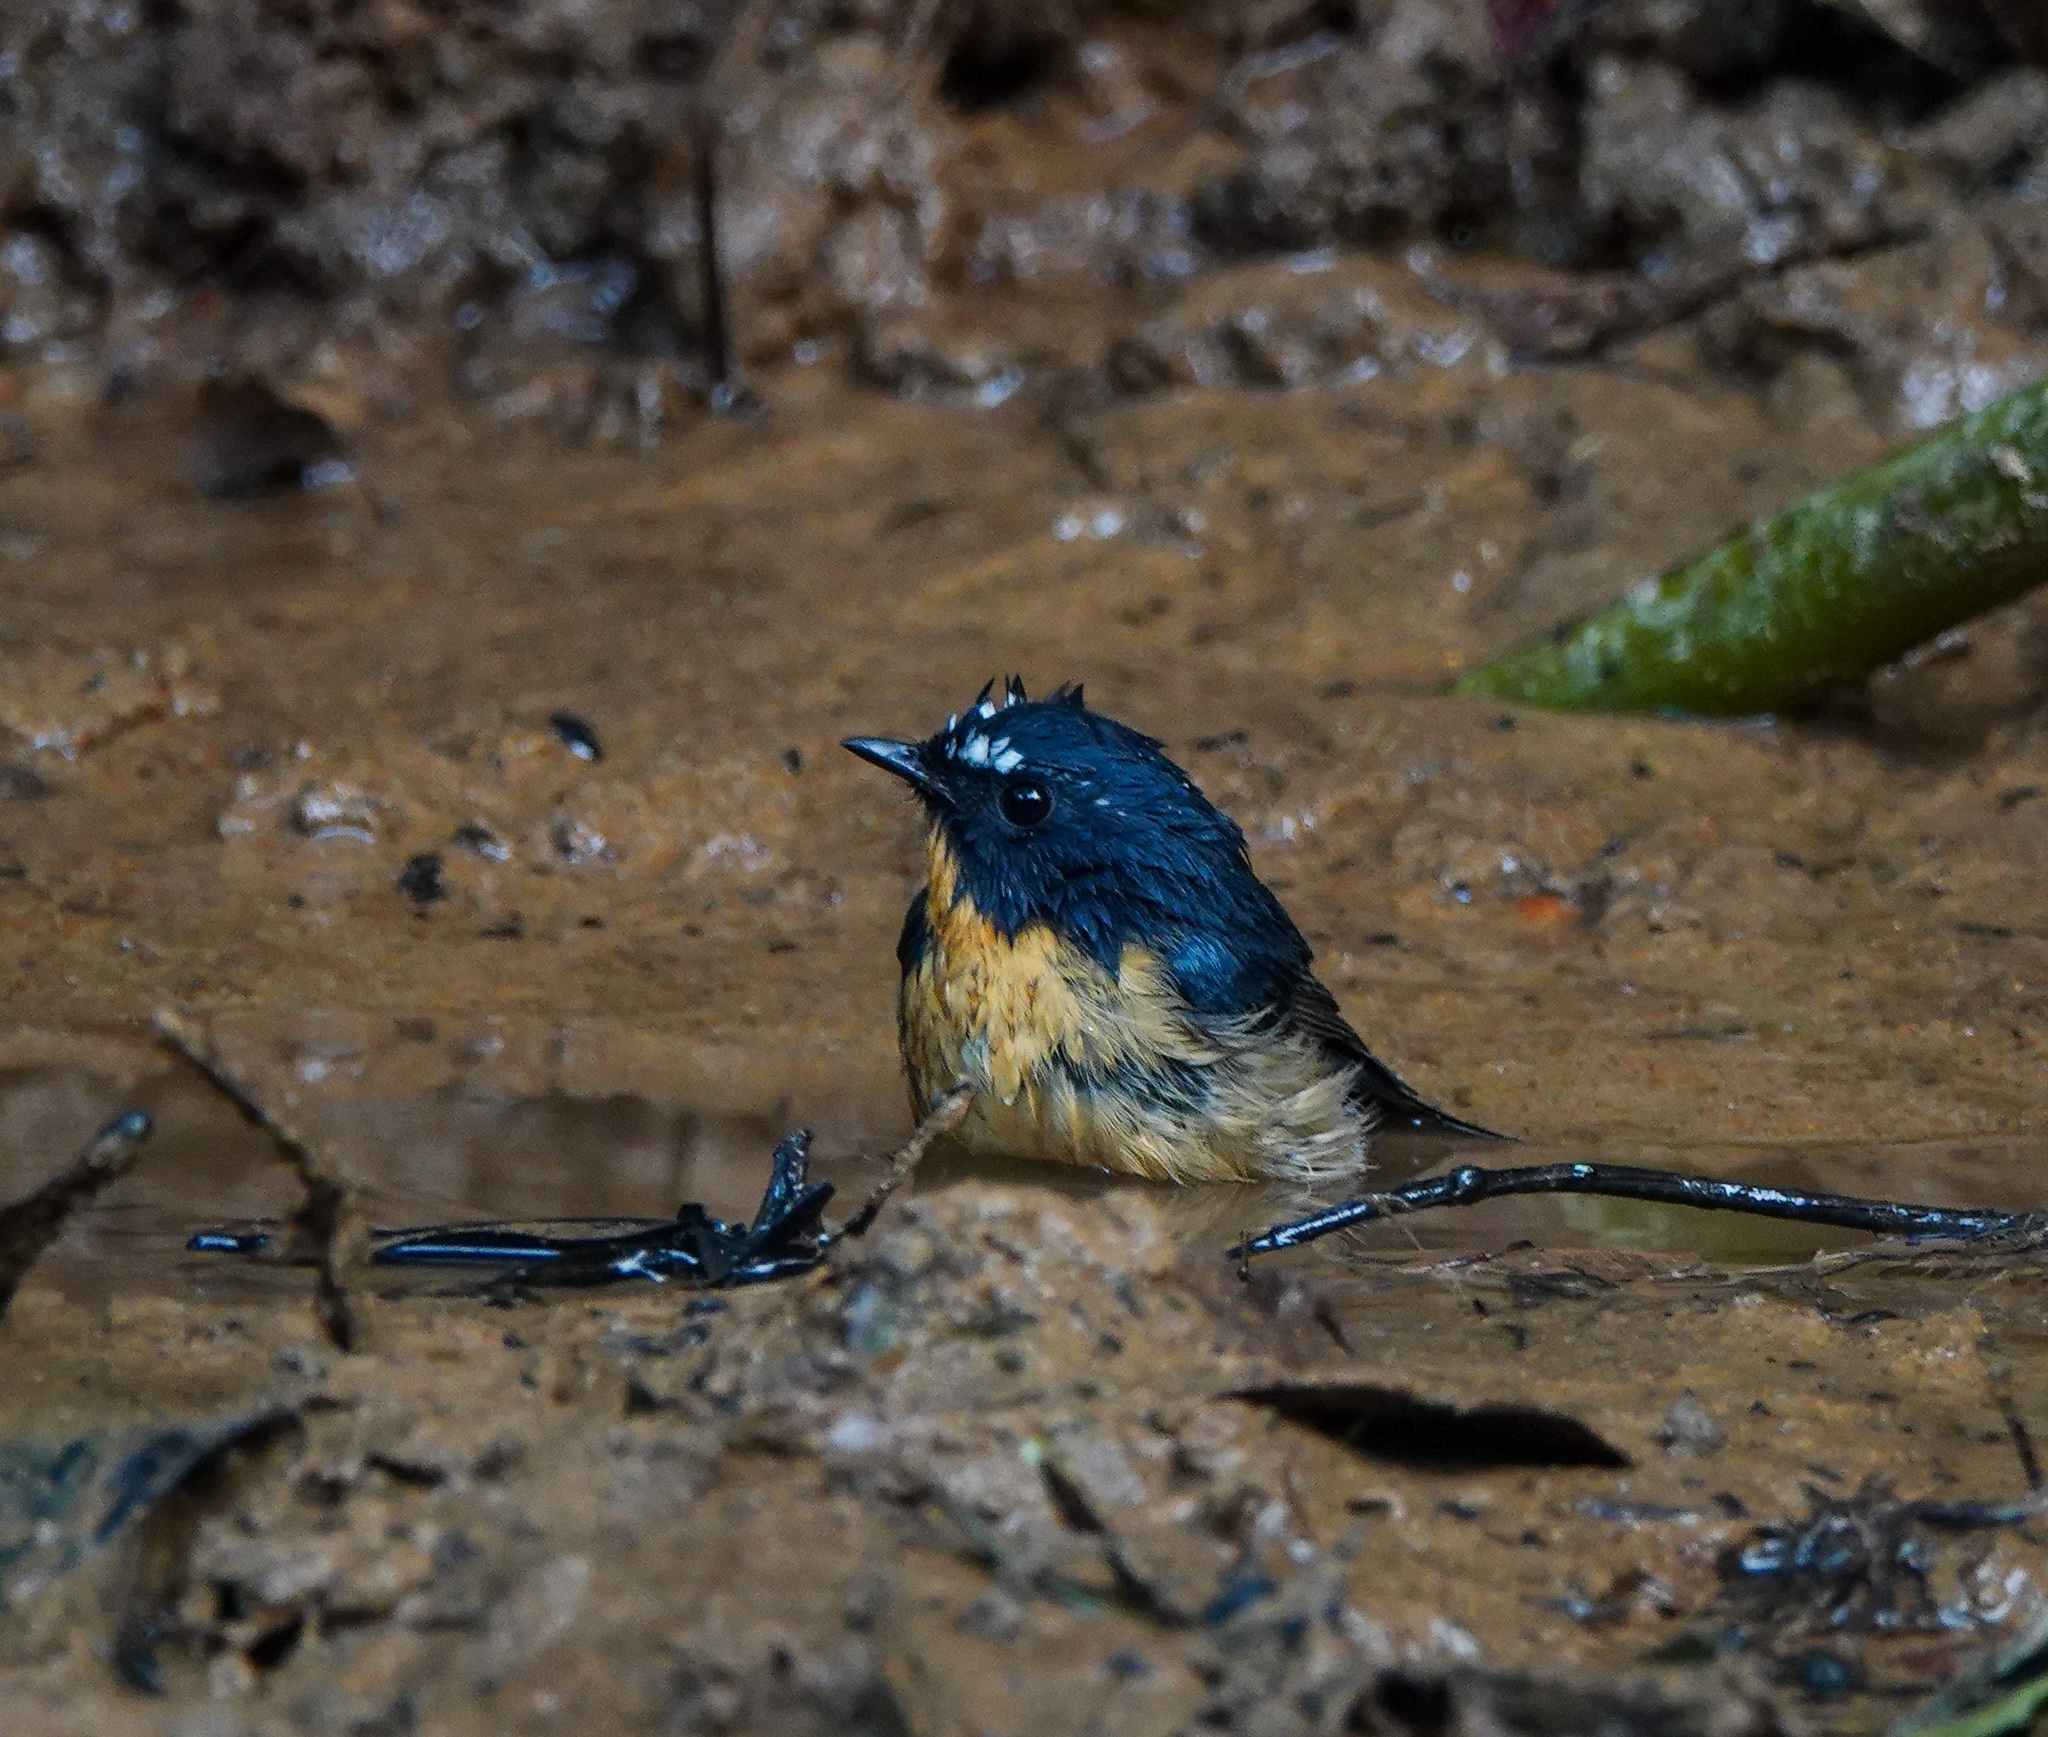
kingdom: Animalia
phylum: Chordata
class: Aves
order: Passeriformes
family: Muscicapidae
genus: Ficedula
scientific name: Ficedula hyperythra
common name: Snowy-browed flycatcher
